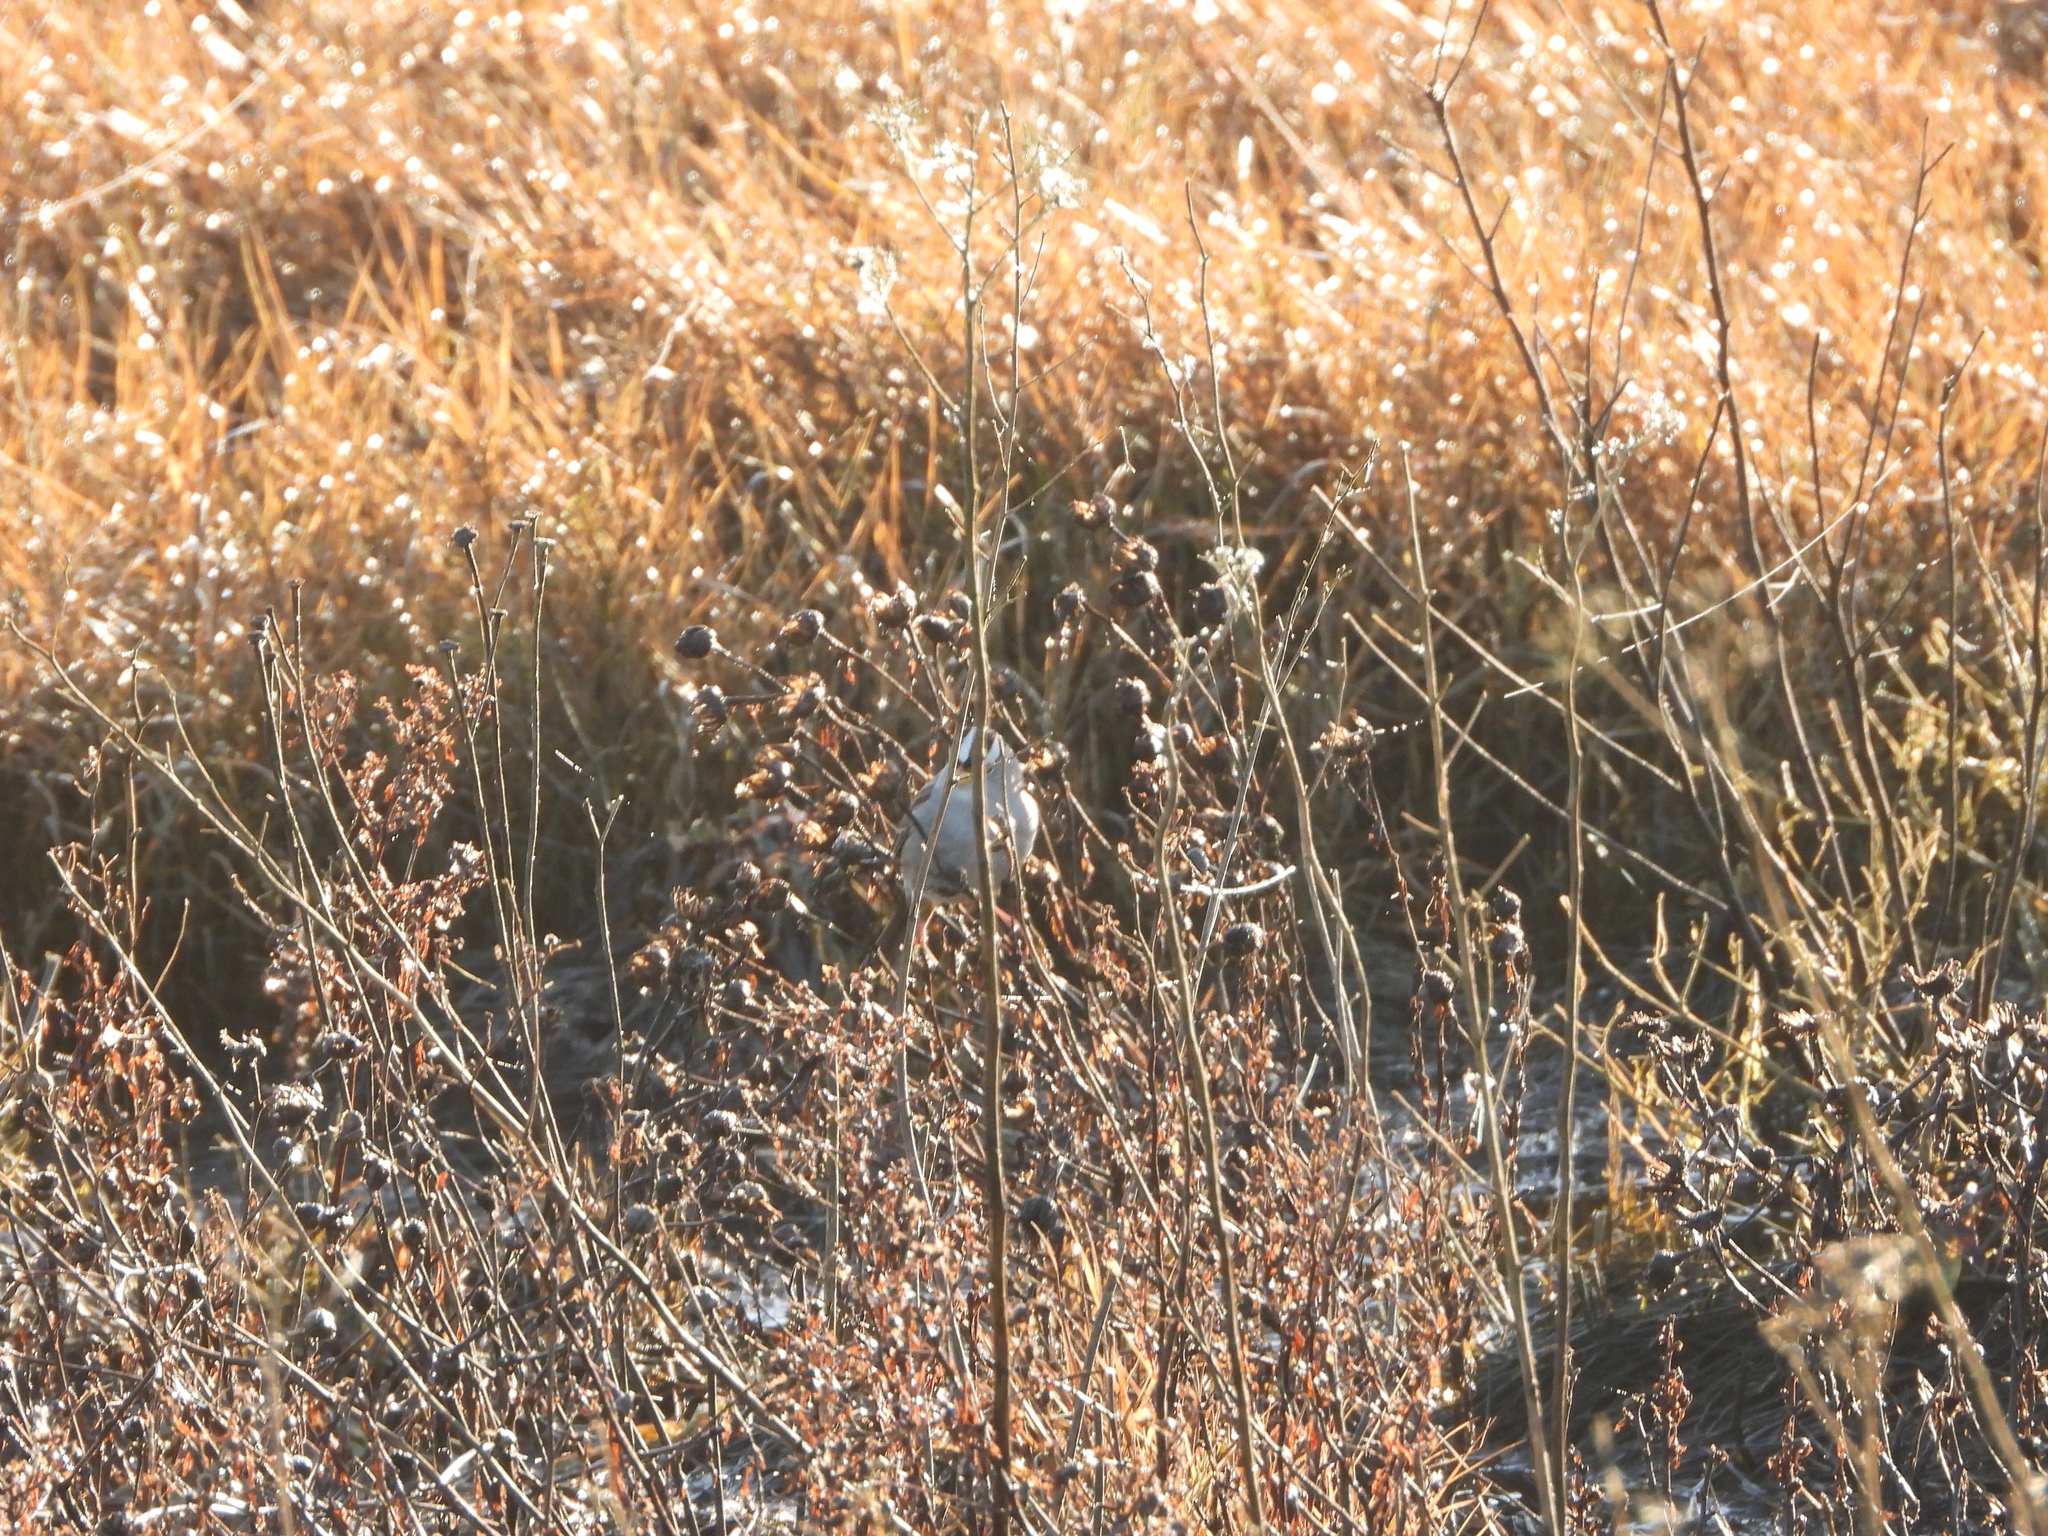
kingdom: Animalia
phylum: Chordata
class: Aves
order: Passeriformes
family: Passerellidae
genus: Zonotrichia
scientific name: Zonotrichia leucophrys
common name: White-crowned sparrow
